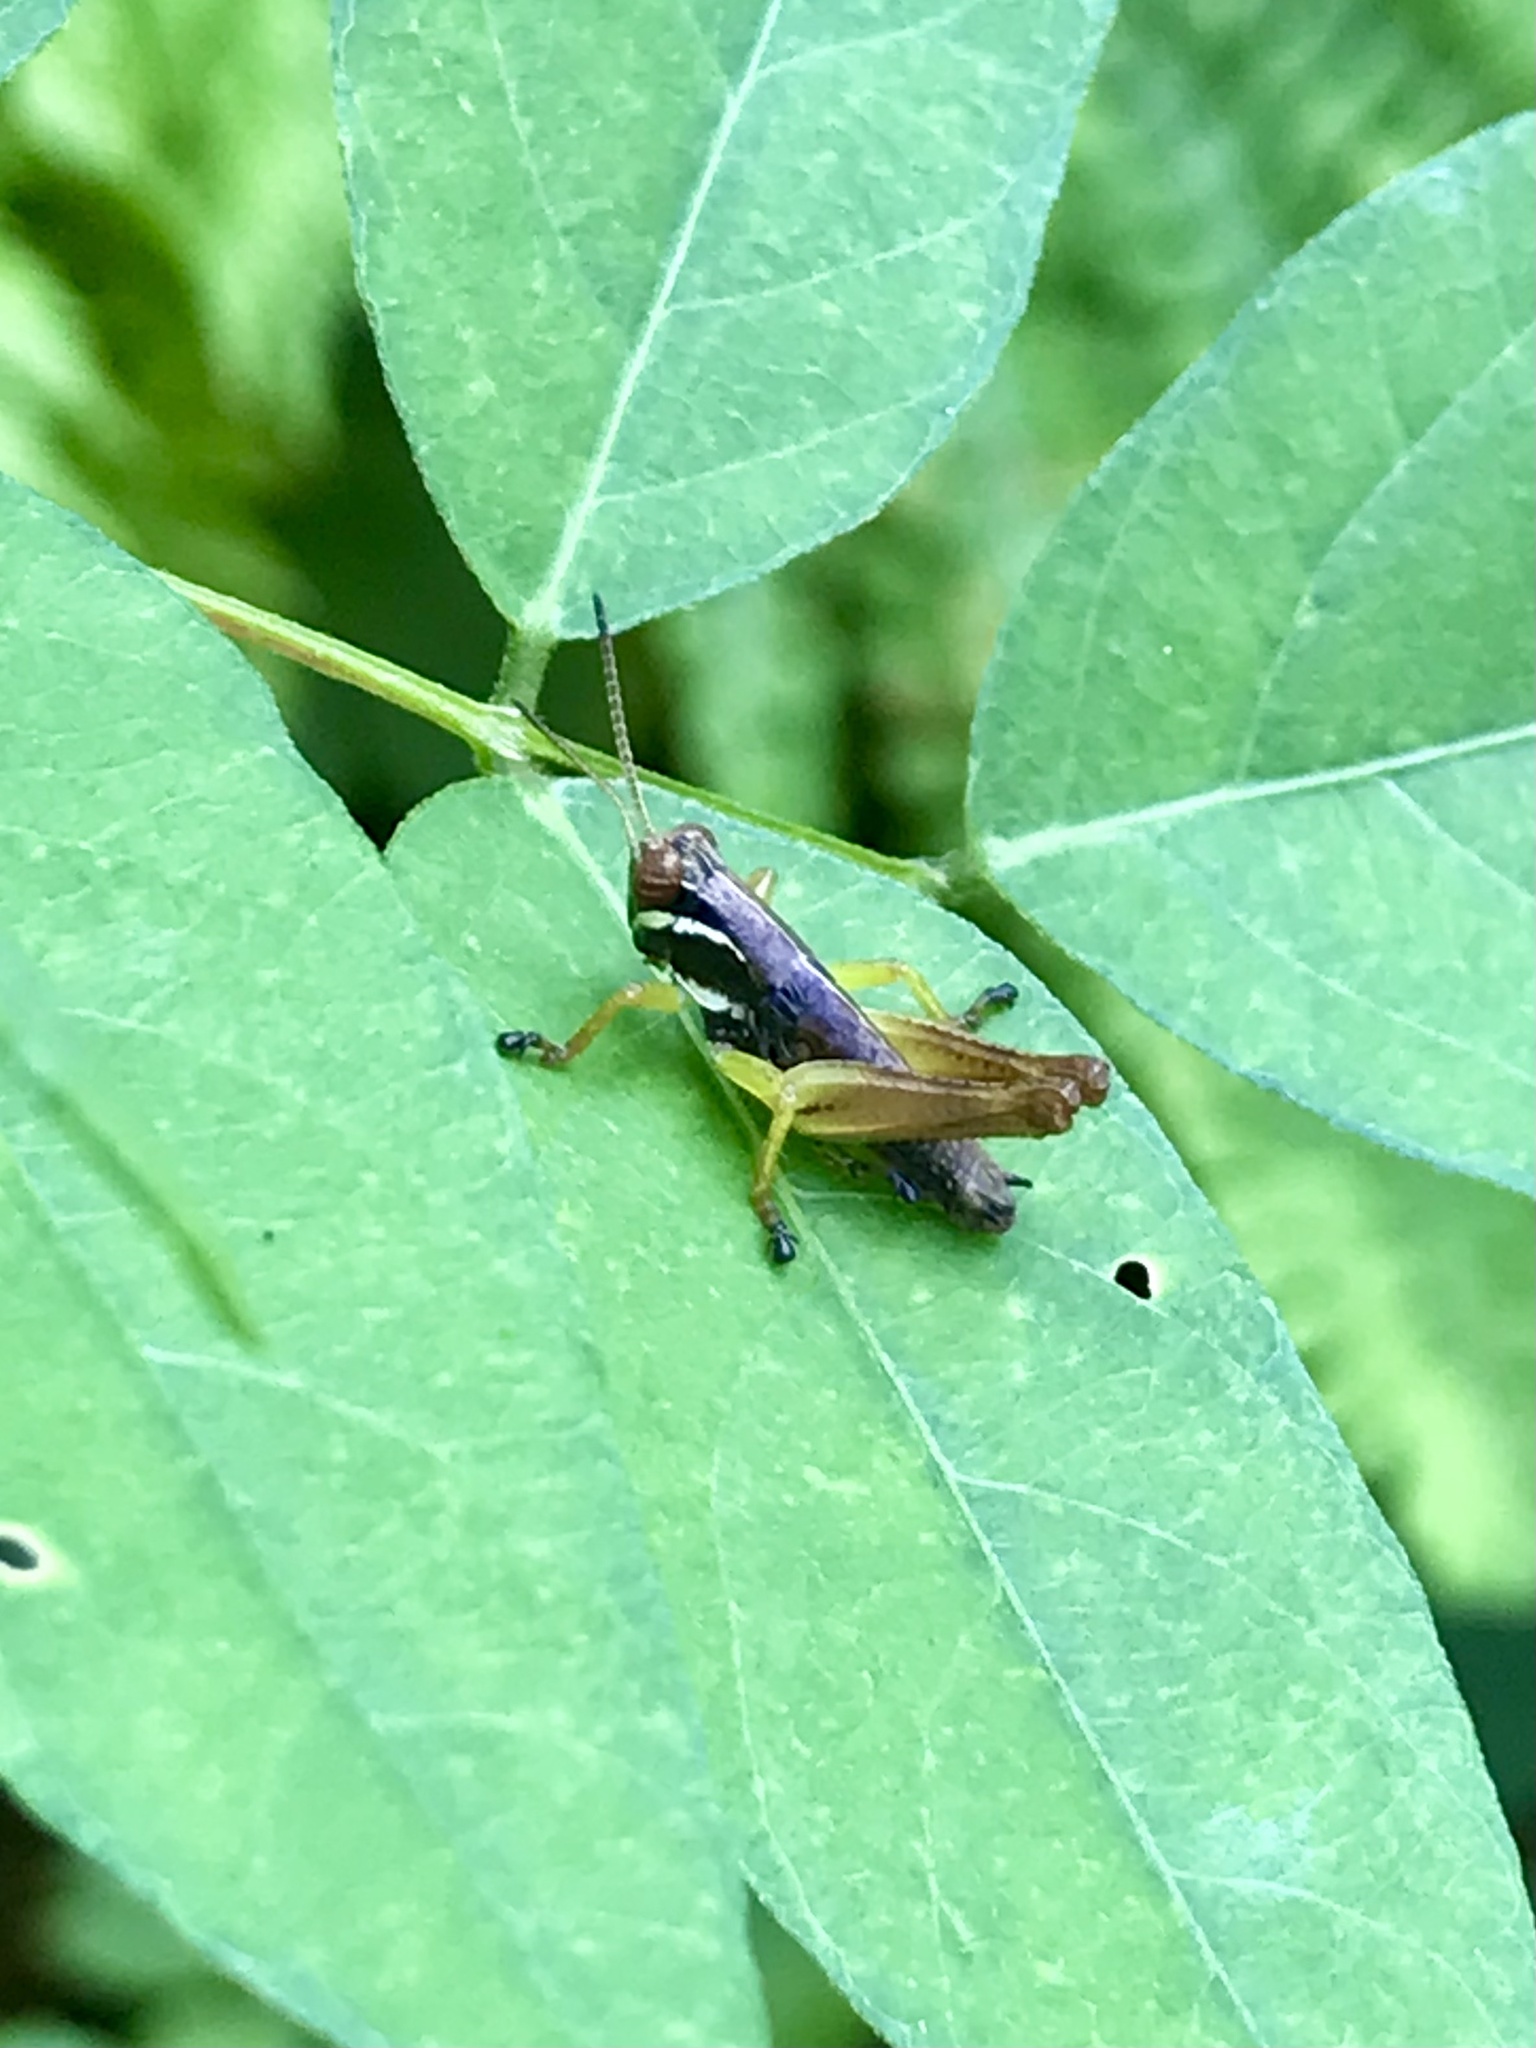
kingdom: Animalia
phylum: Arthropoda
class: Insecta
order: Orthoptera
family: Acrididae
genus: Melanoplus
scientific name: Melanoplus gracilis
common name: Graceful narrow-winged locust
